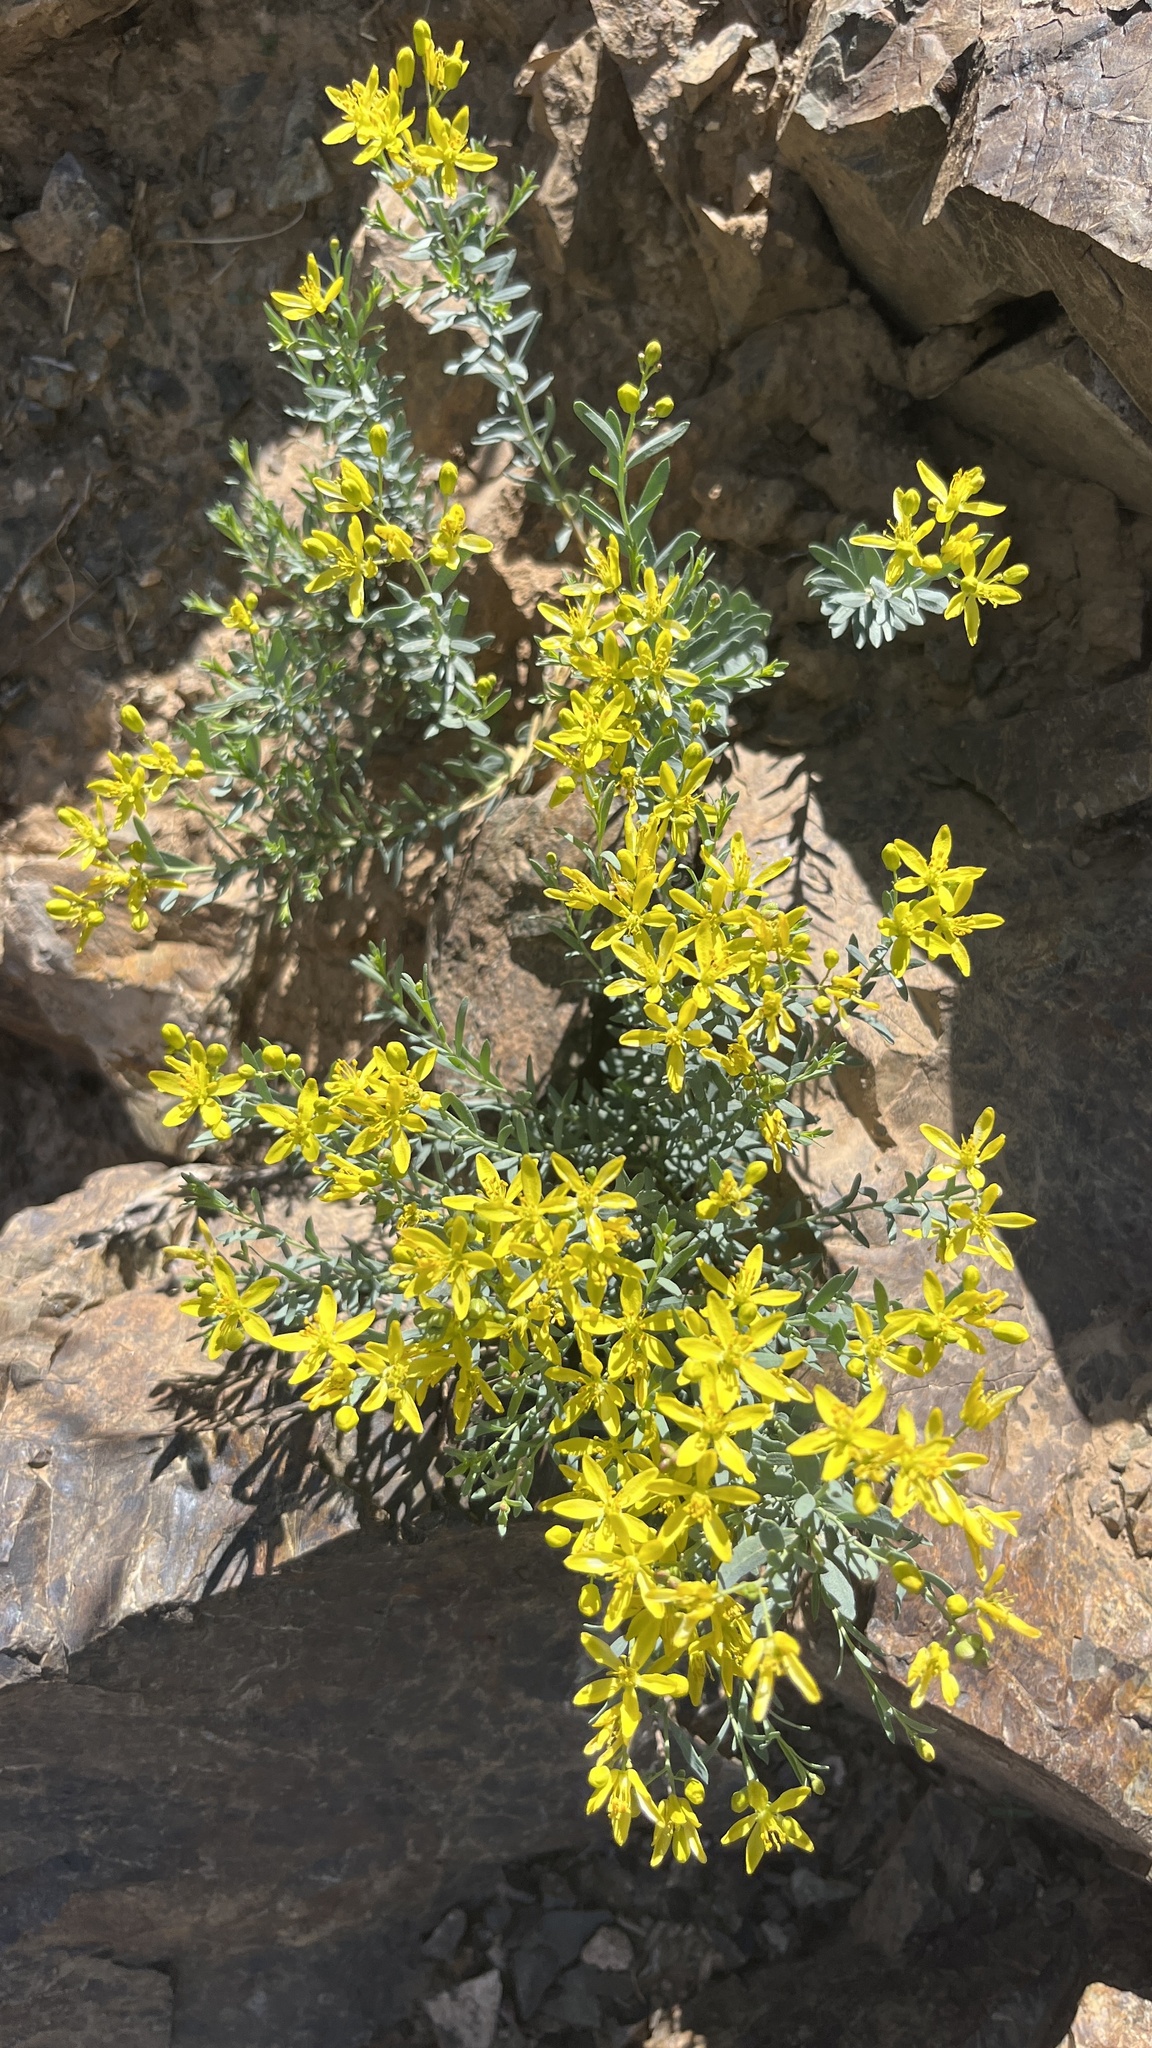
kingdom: Plantae
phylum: Tracheophyta
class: Magnoliopsida
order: Sapindales
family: Rutaceae
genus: Haplophyllum
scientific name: Haplophyllum dauricum
